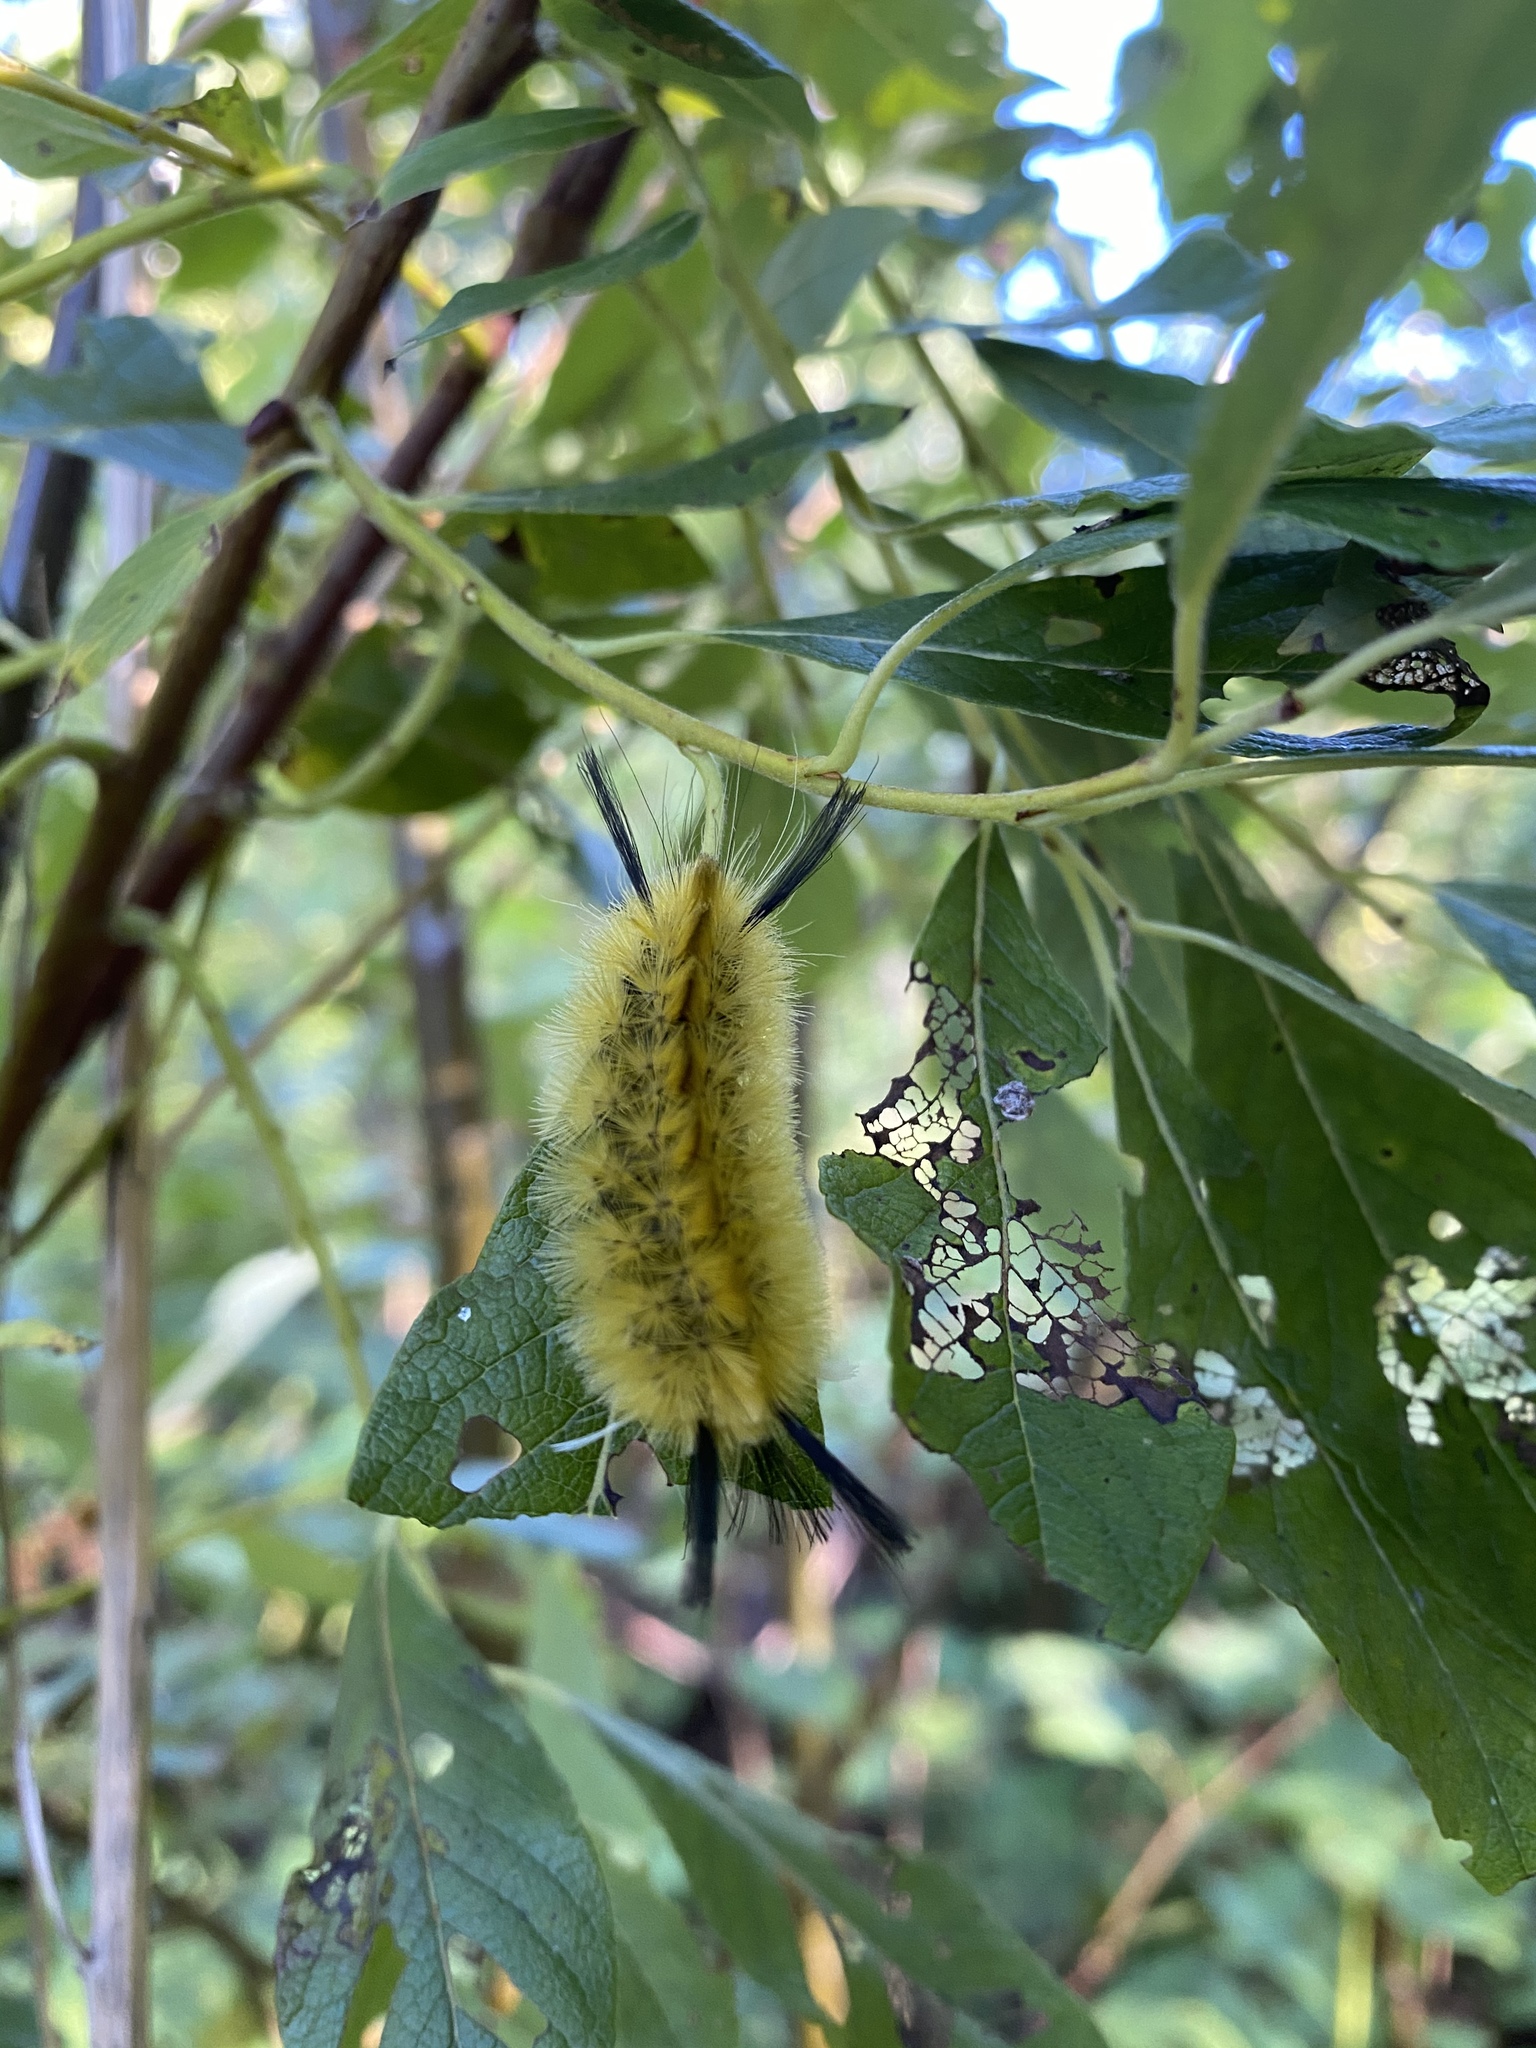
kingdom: Animalia
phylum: Arthropoda
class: Insecta
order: Lepidoptera
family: Erebidae
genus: Halysidota
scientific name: Halysidota tessellaris
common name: Banded tussock moth
